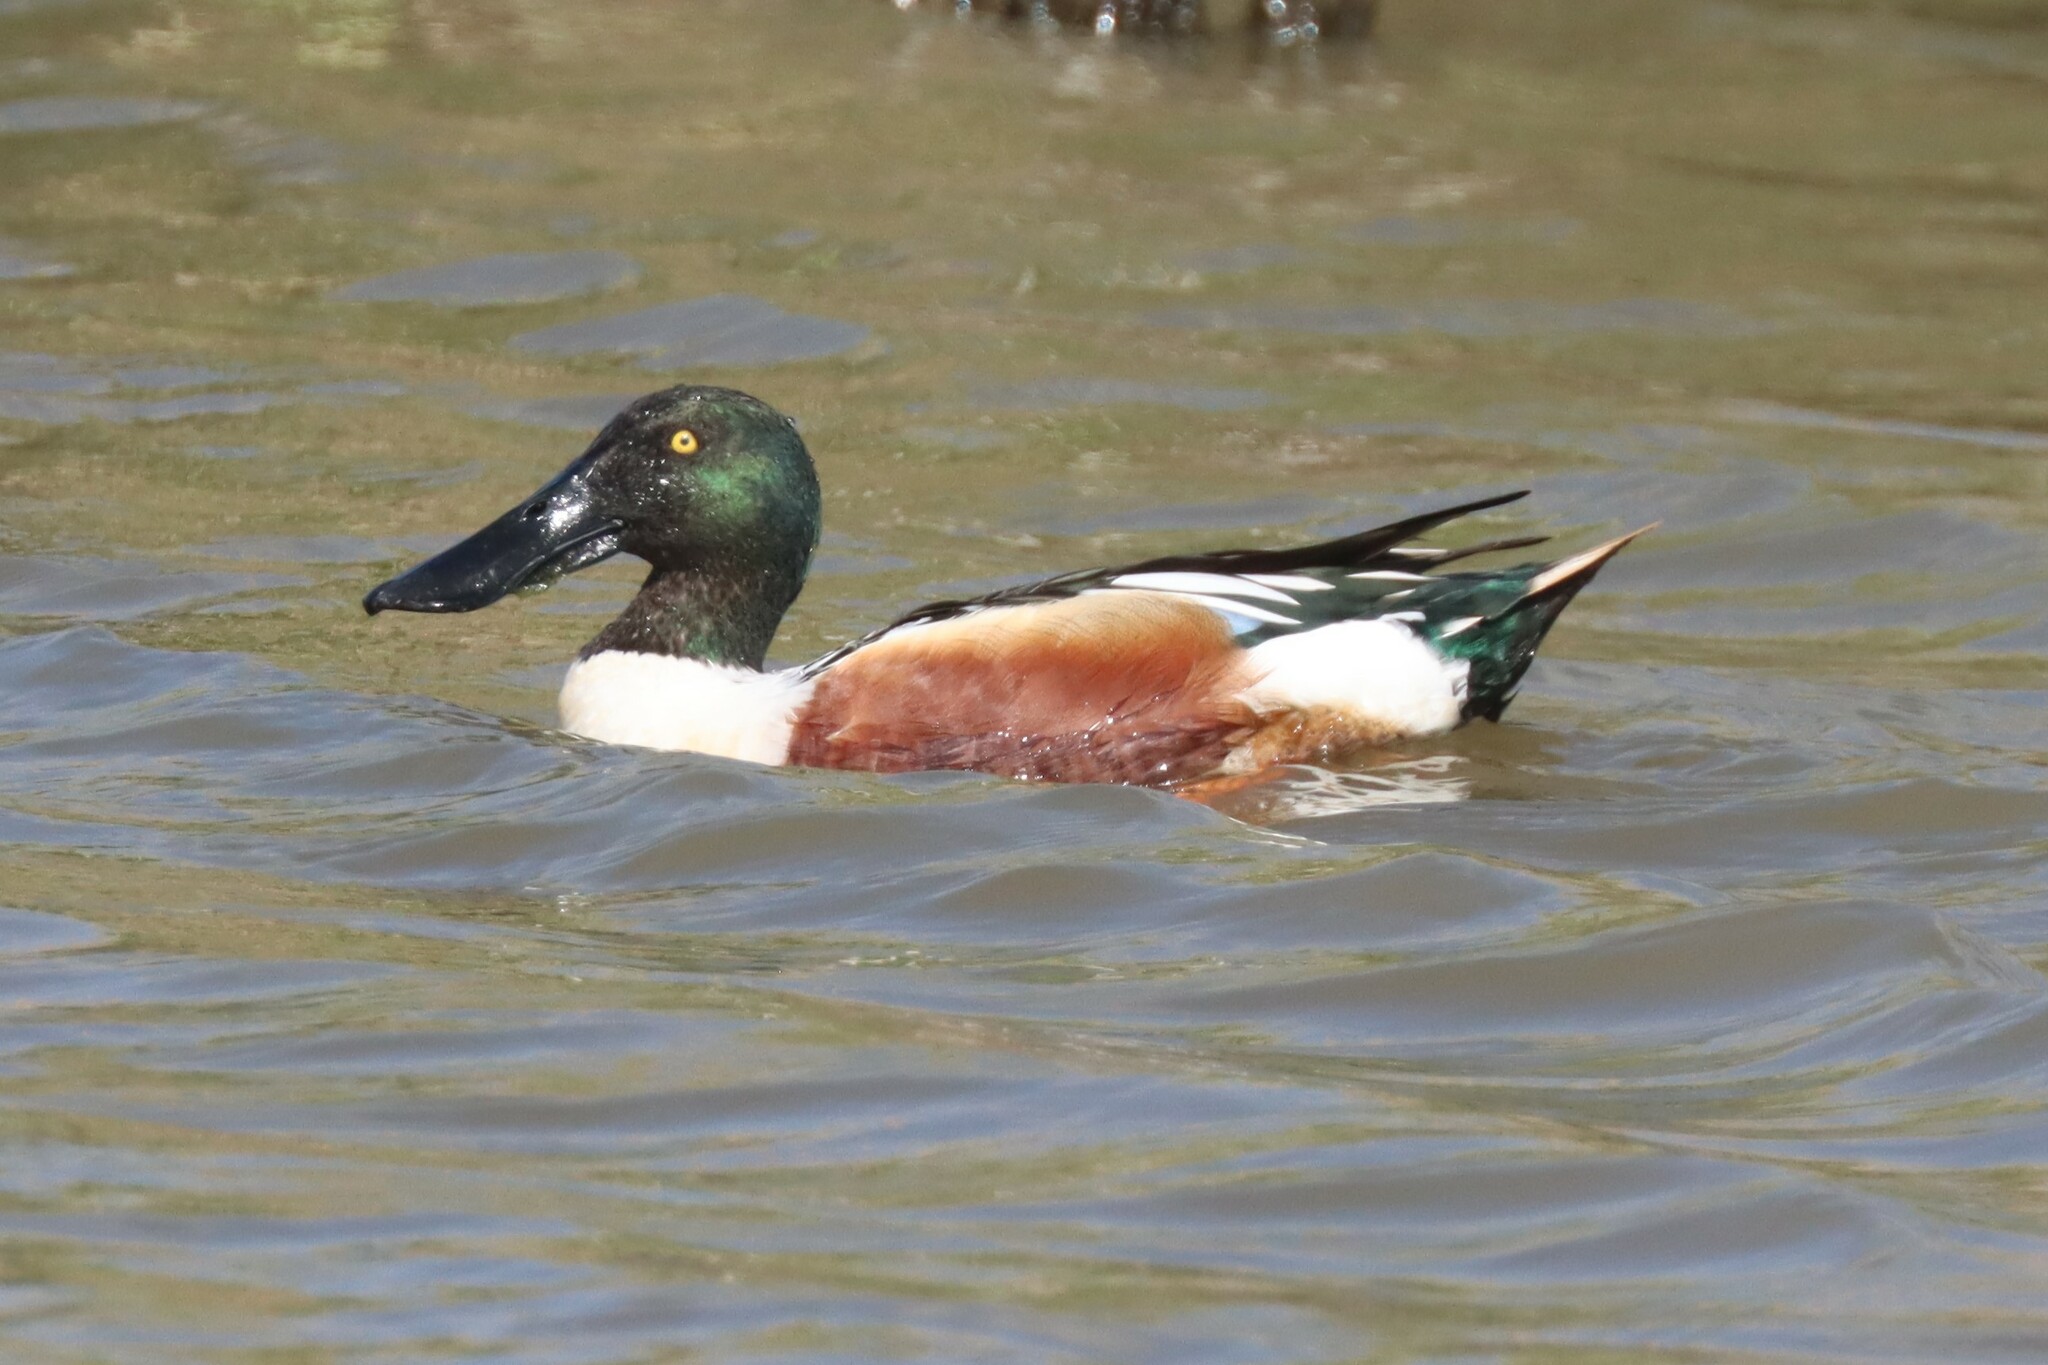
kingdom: Animalia
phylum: Chordata
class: Aves
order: Anseriformes
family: Anatidae
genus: Spatula
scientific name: Spatula clypeata
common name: Northern shoveler
